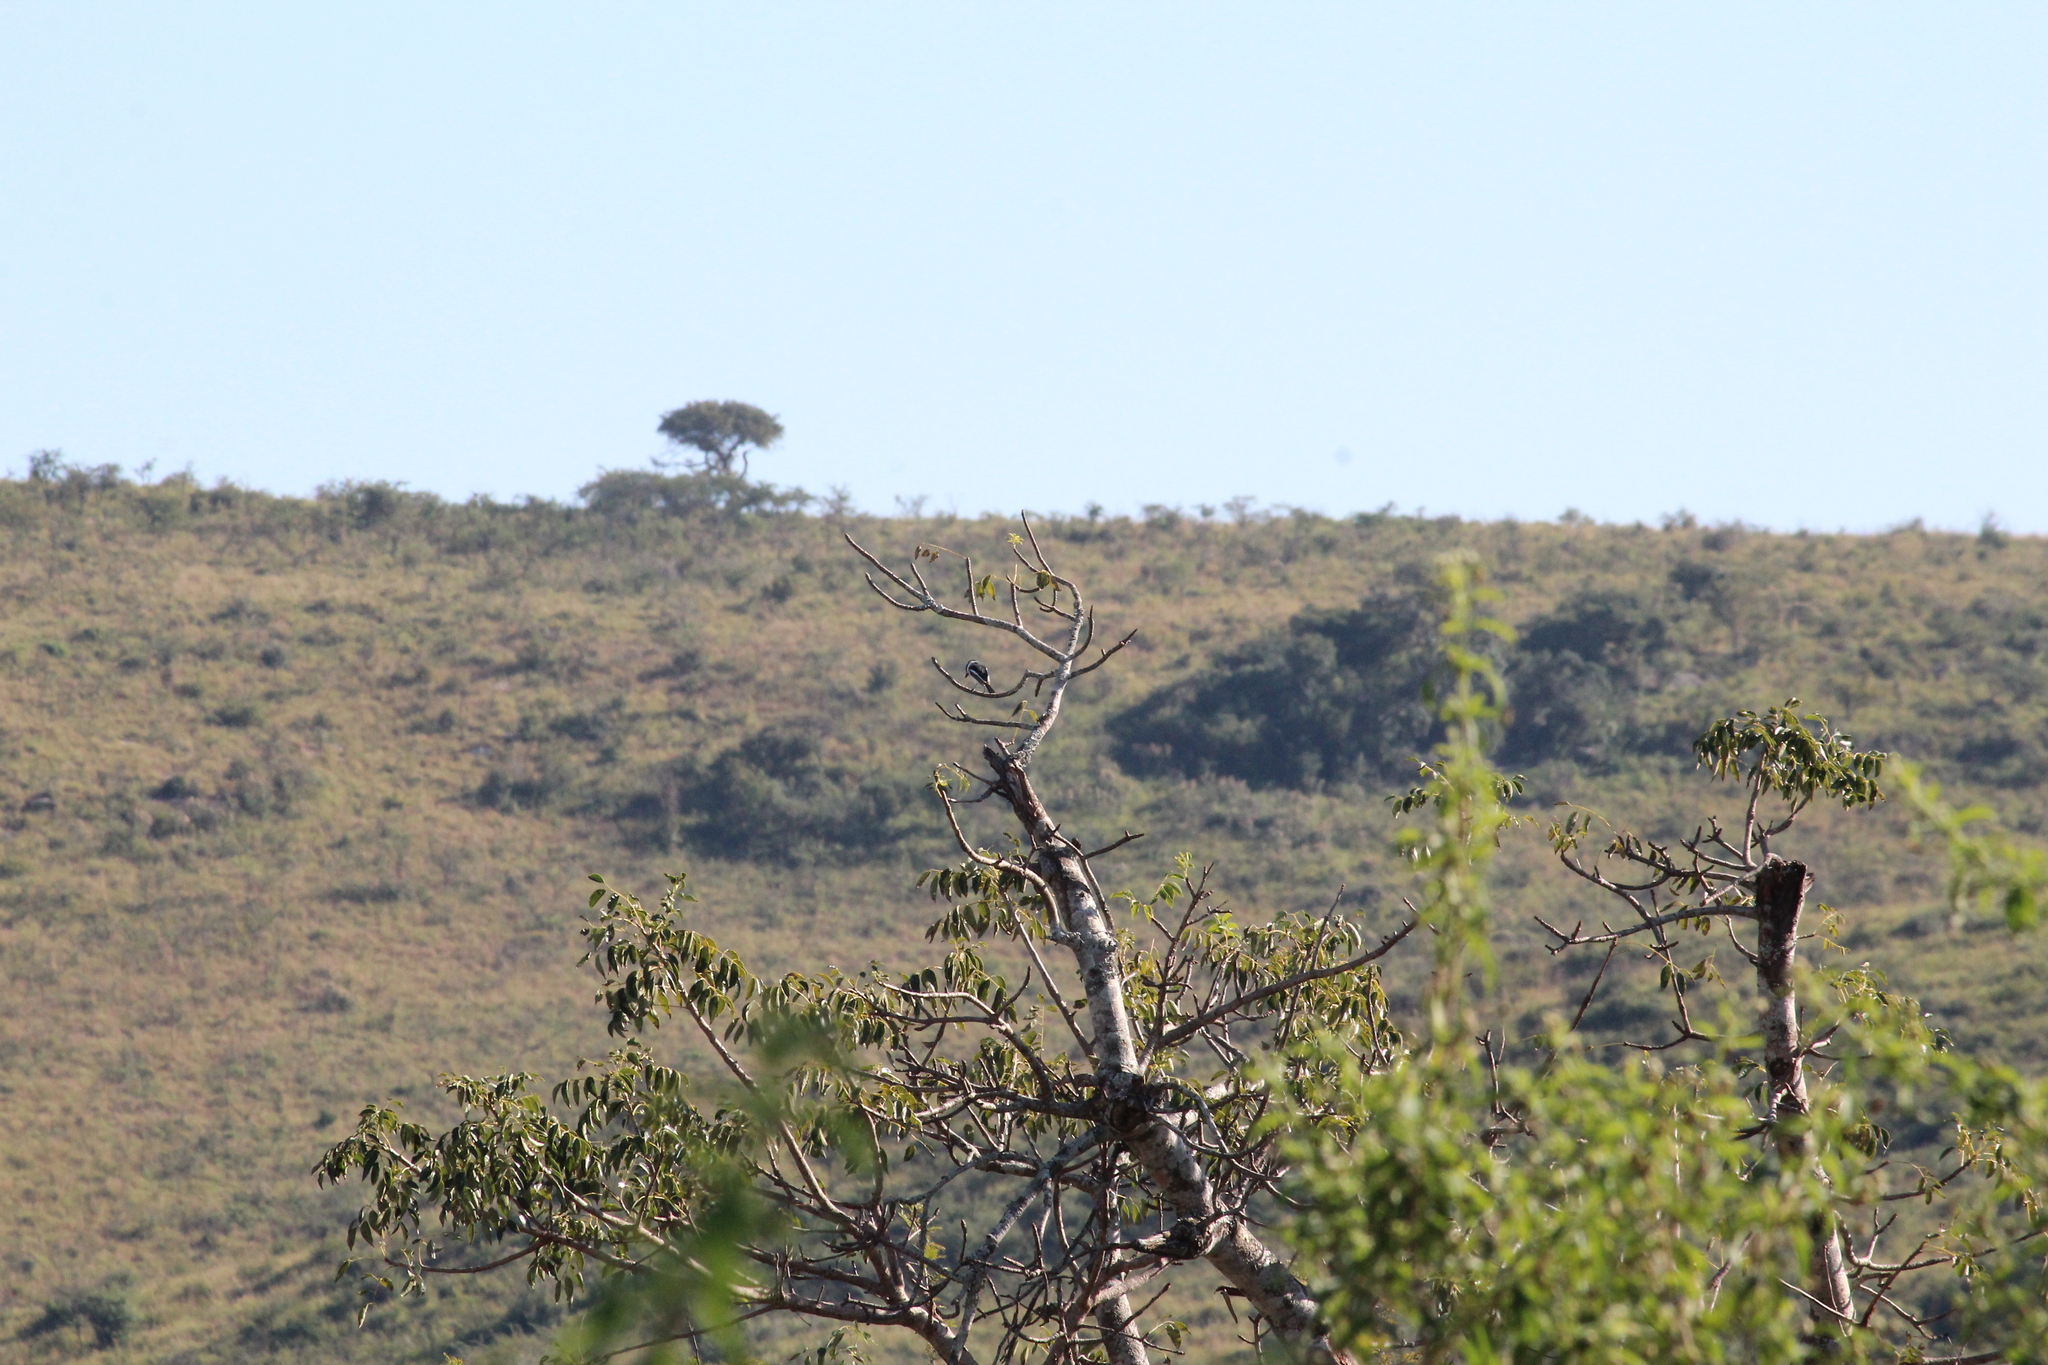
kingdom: Animalia
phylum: Chordata
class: Aves
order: Passeriformes
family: Platysteiridae
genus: Batis
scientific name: Batis molitor
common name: Chinspot batis
